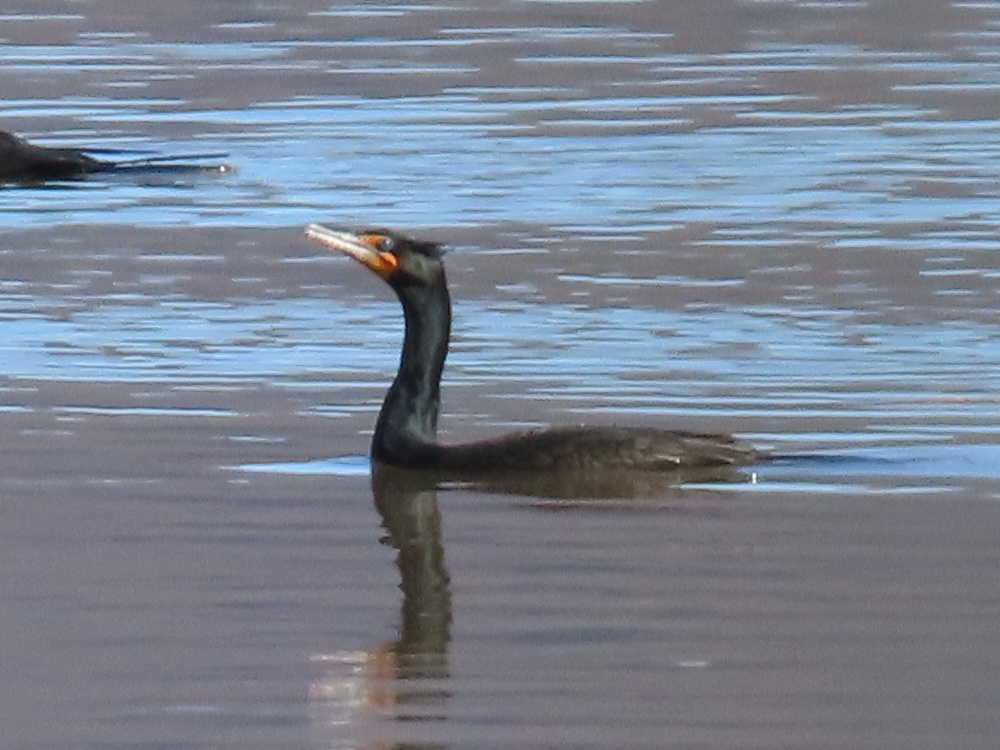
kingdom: Animalia
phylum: Chordata
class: Aves
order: Suliformes
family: Phalacrocoracidae
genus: Phalacrocorax
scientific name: Phalacrocorax auritus
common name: Double-crested cormorant
